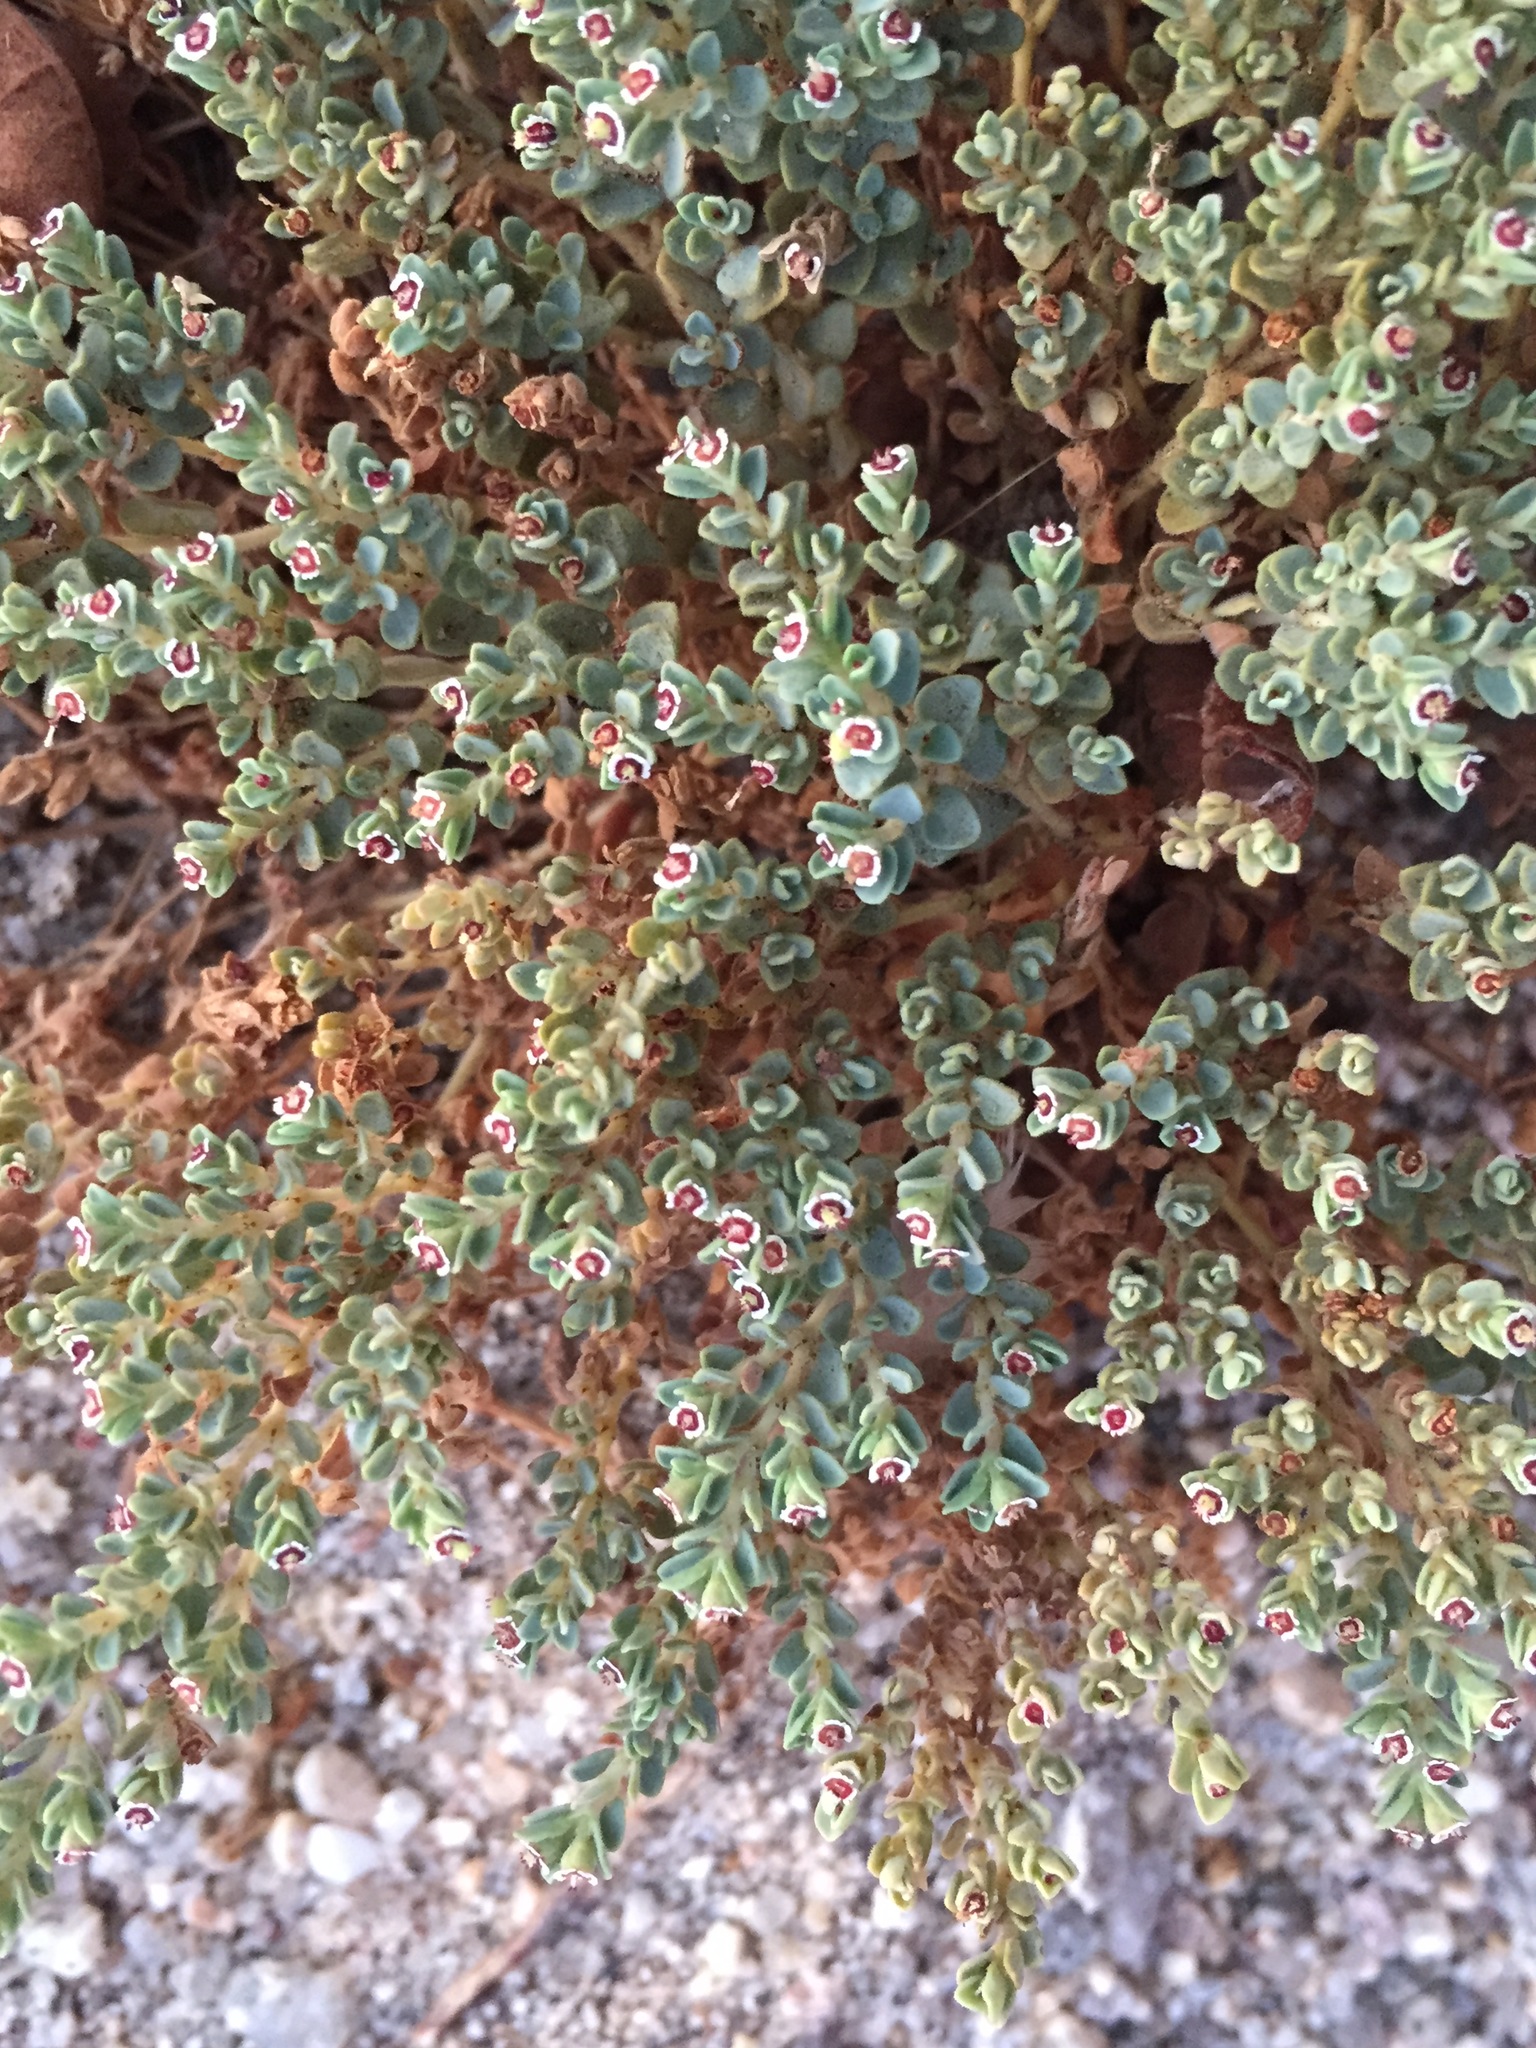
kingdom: Plantae
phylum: Tracheophyta
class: Magnoliopsida
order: Malpighiales
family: Euphorbiaceae
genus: Euphorbia
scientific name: Euphorbia polycarpa
